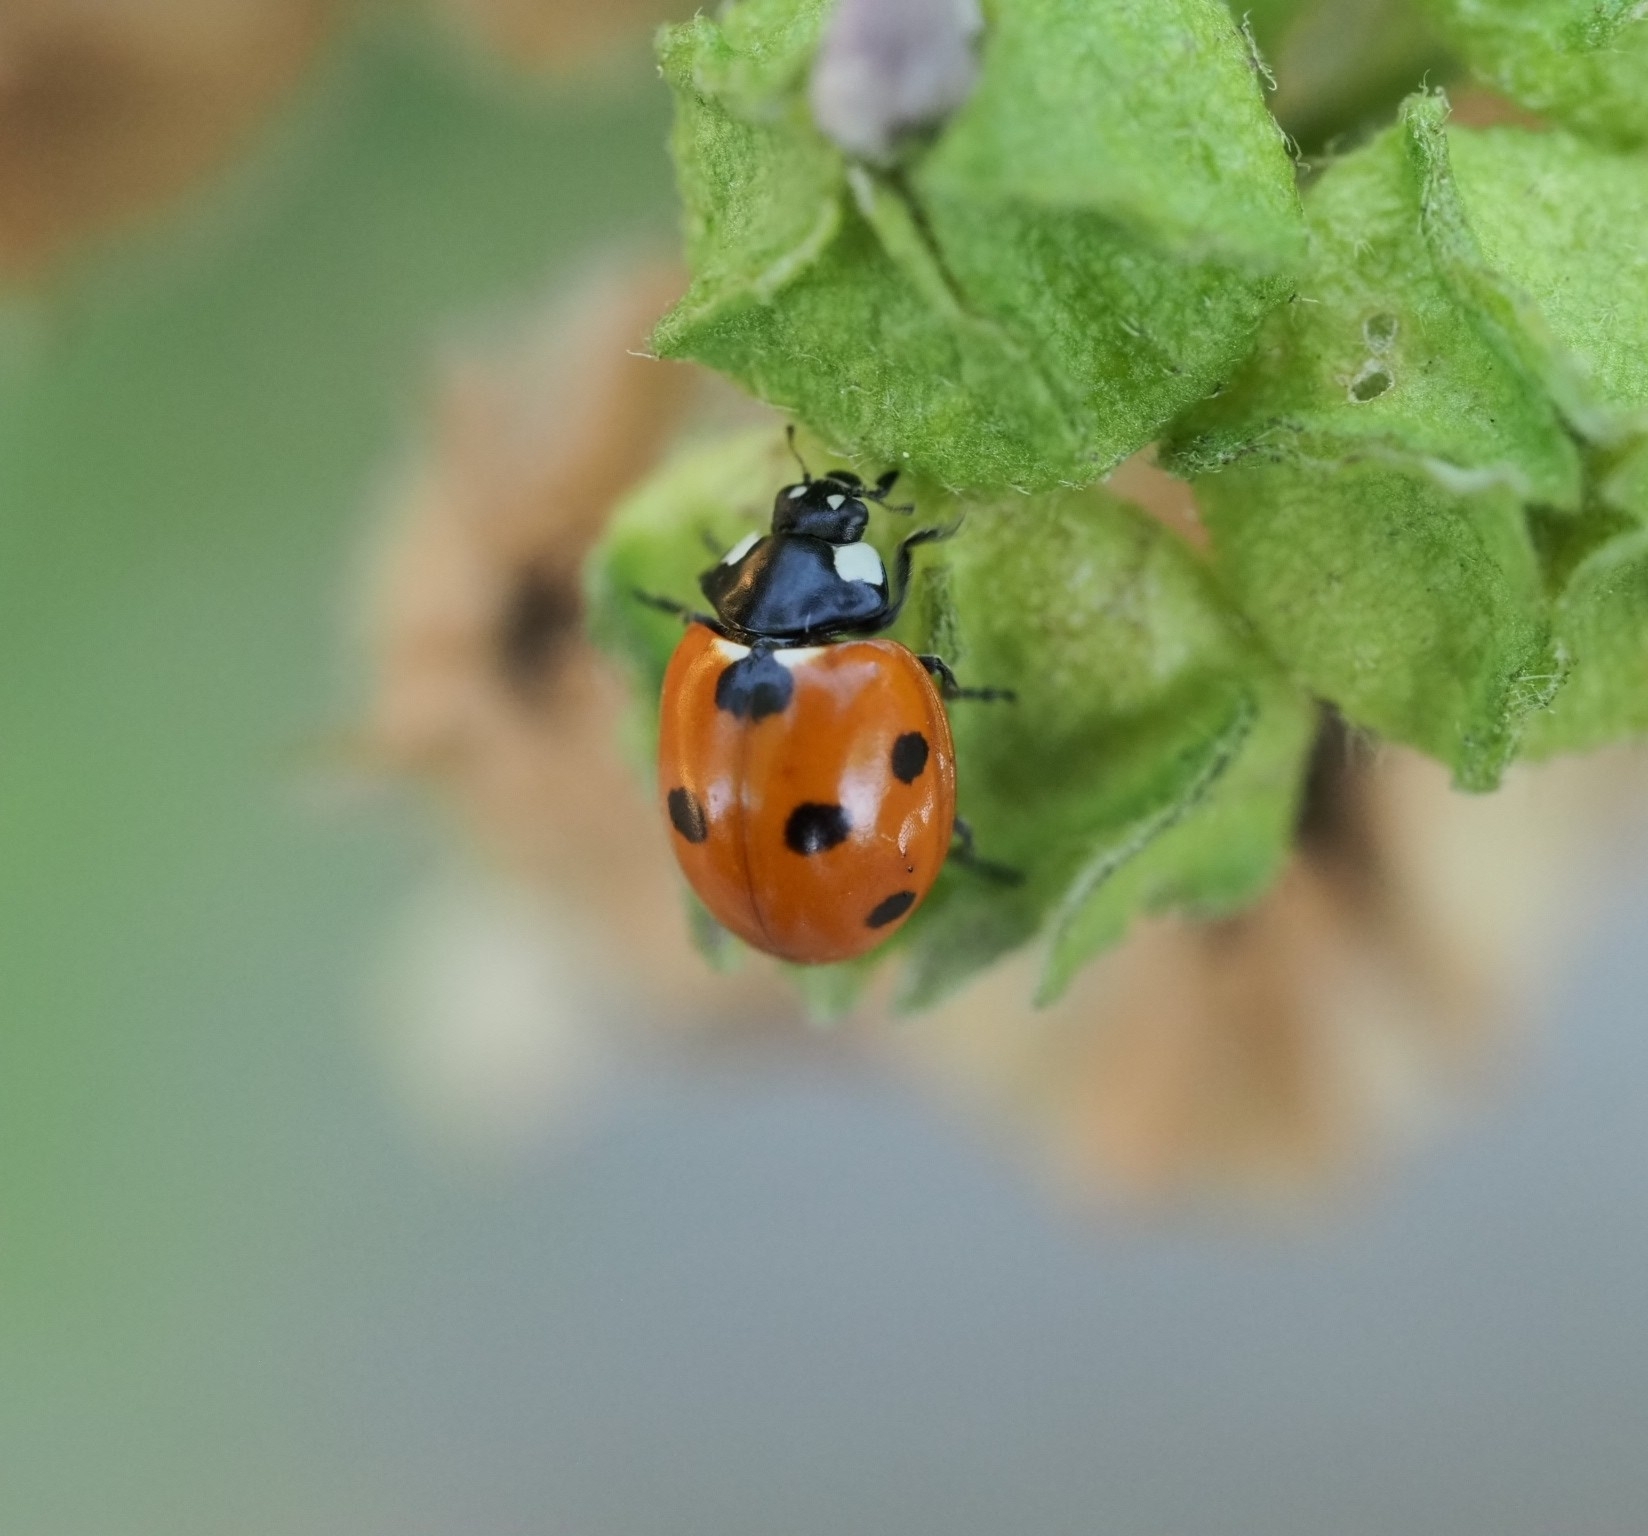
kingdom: Animalia
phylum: Arthropoda
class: Insecta
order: Coleoptera
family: Coccinellidae
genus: Coccinella
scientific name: Coccinella septempunctata
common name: Sevenspotted lady beetle
